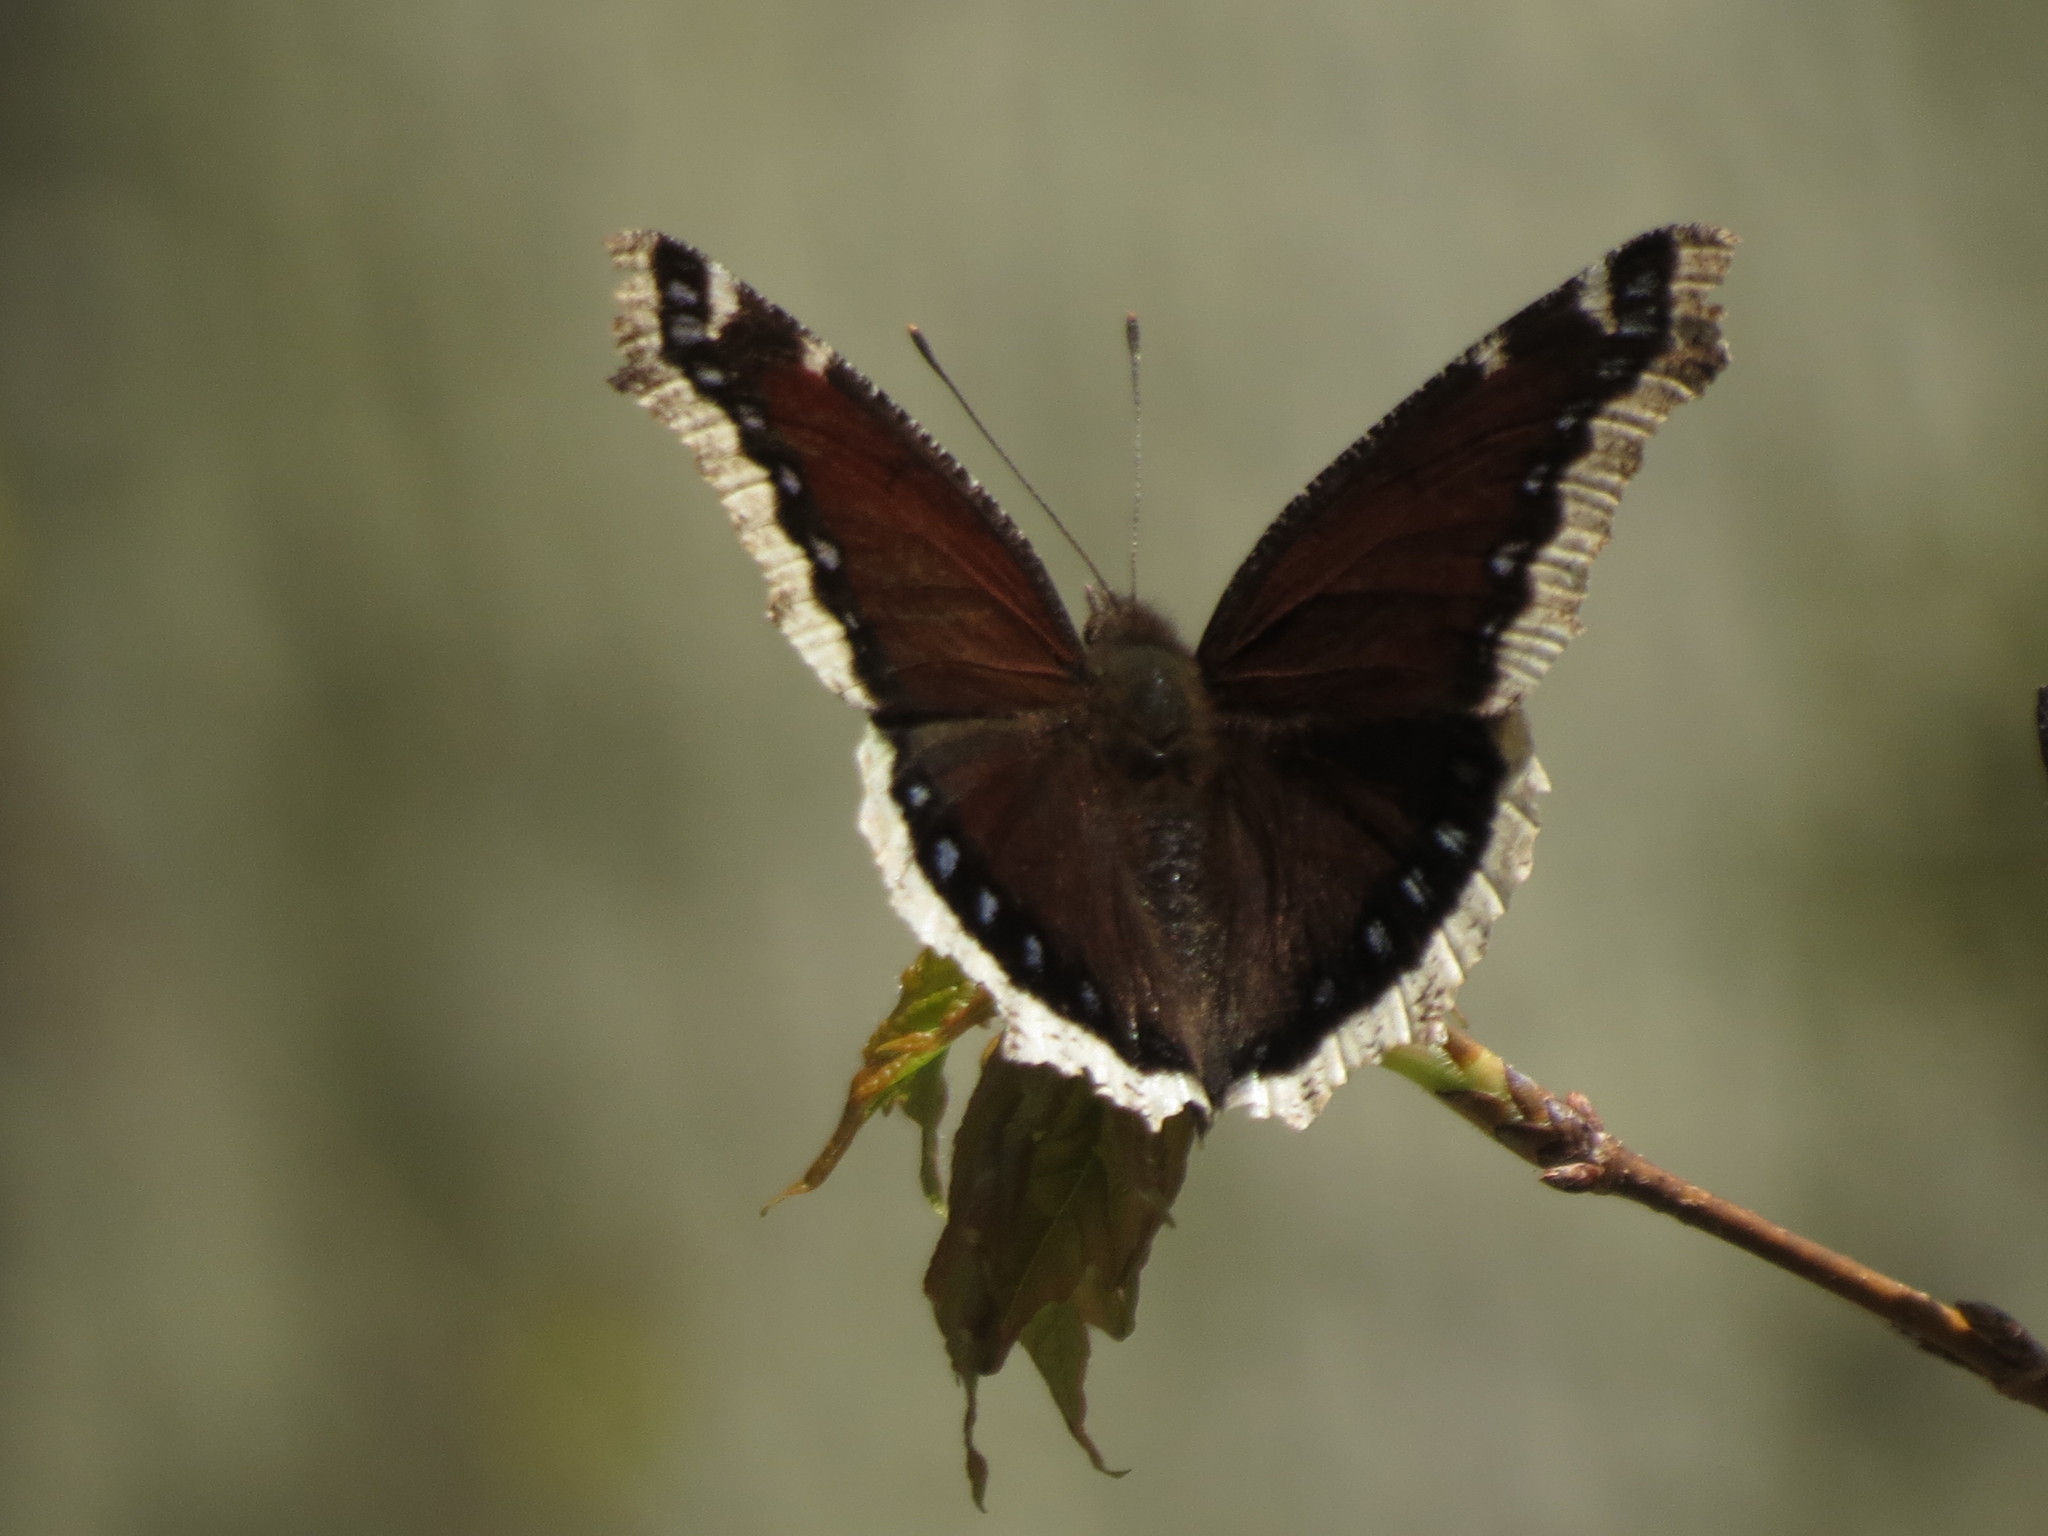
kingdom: Animalia
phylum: Arthropoda
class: Insecta
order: Lepidoptera
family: Nymphalidae
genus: Nymphalis
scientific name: Nymphalis antiopa
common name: Camberwell beauty
